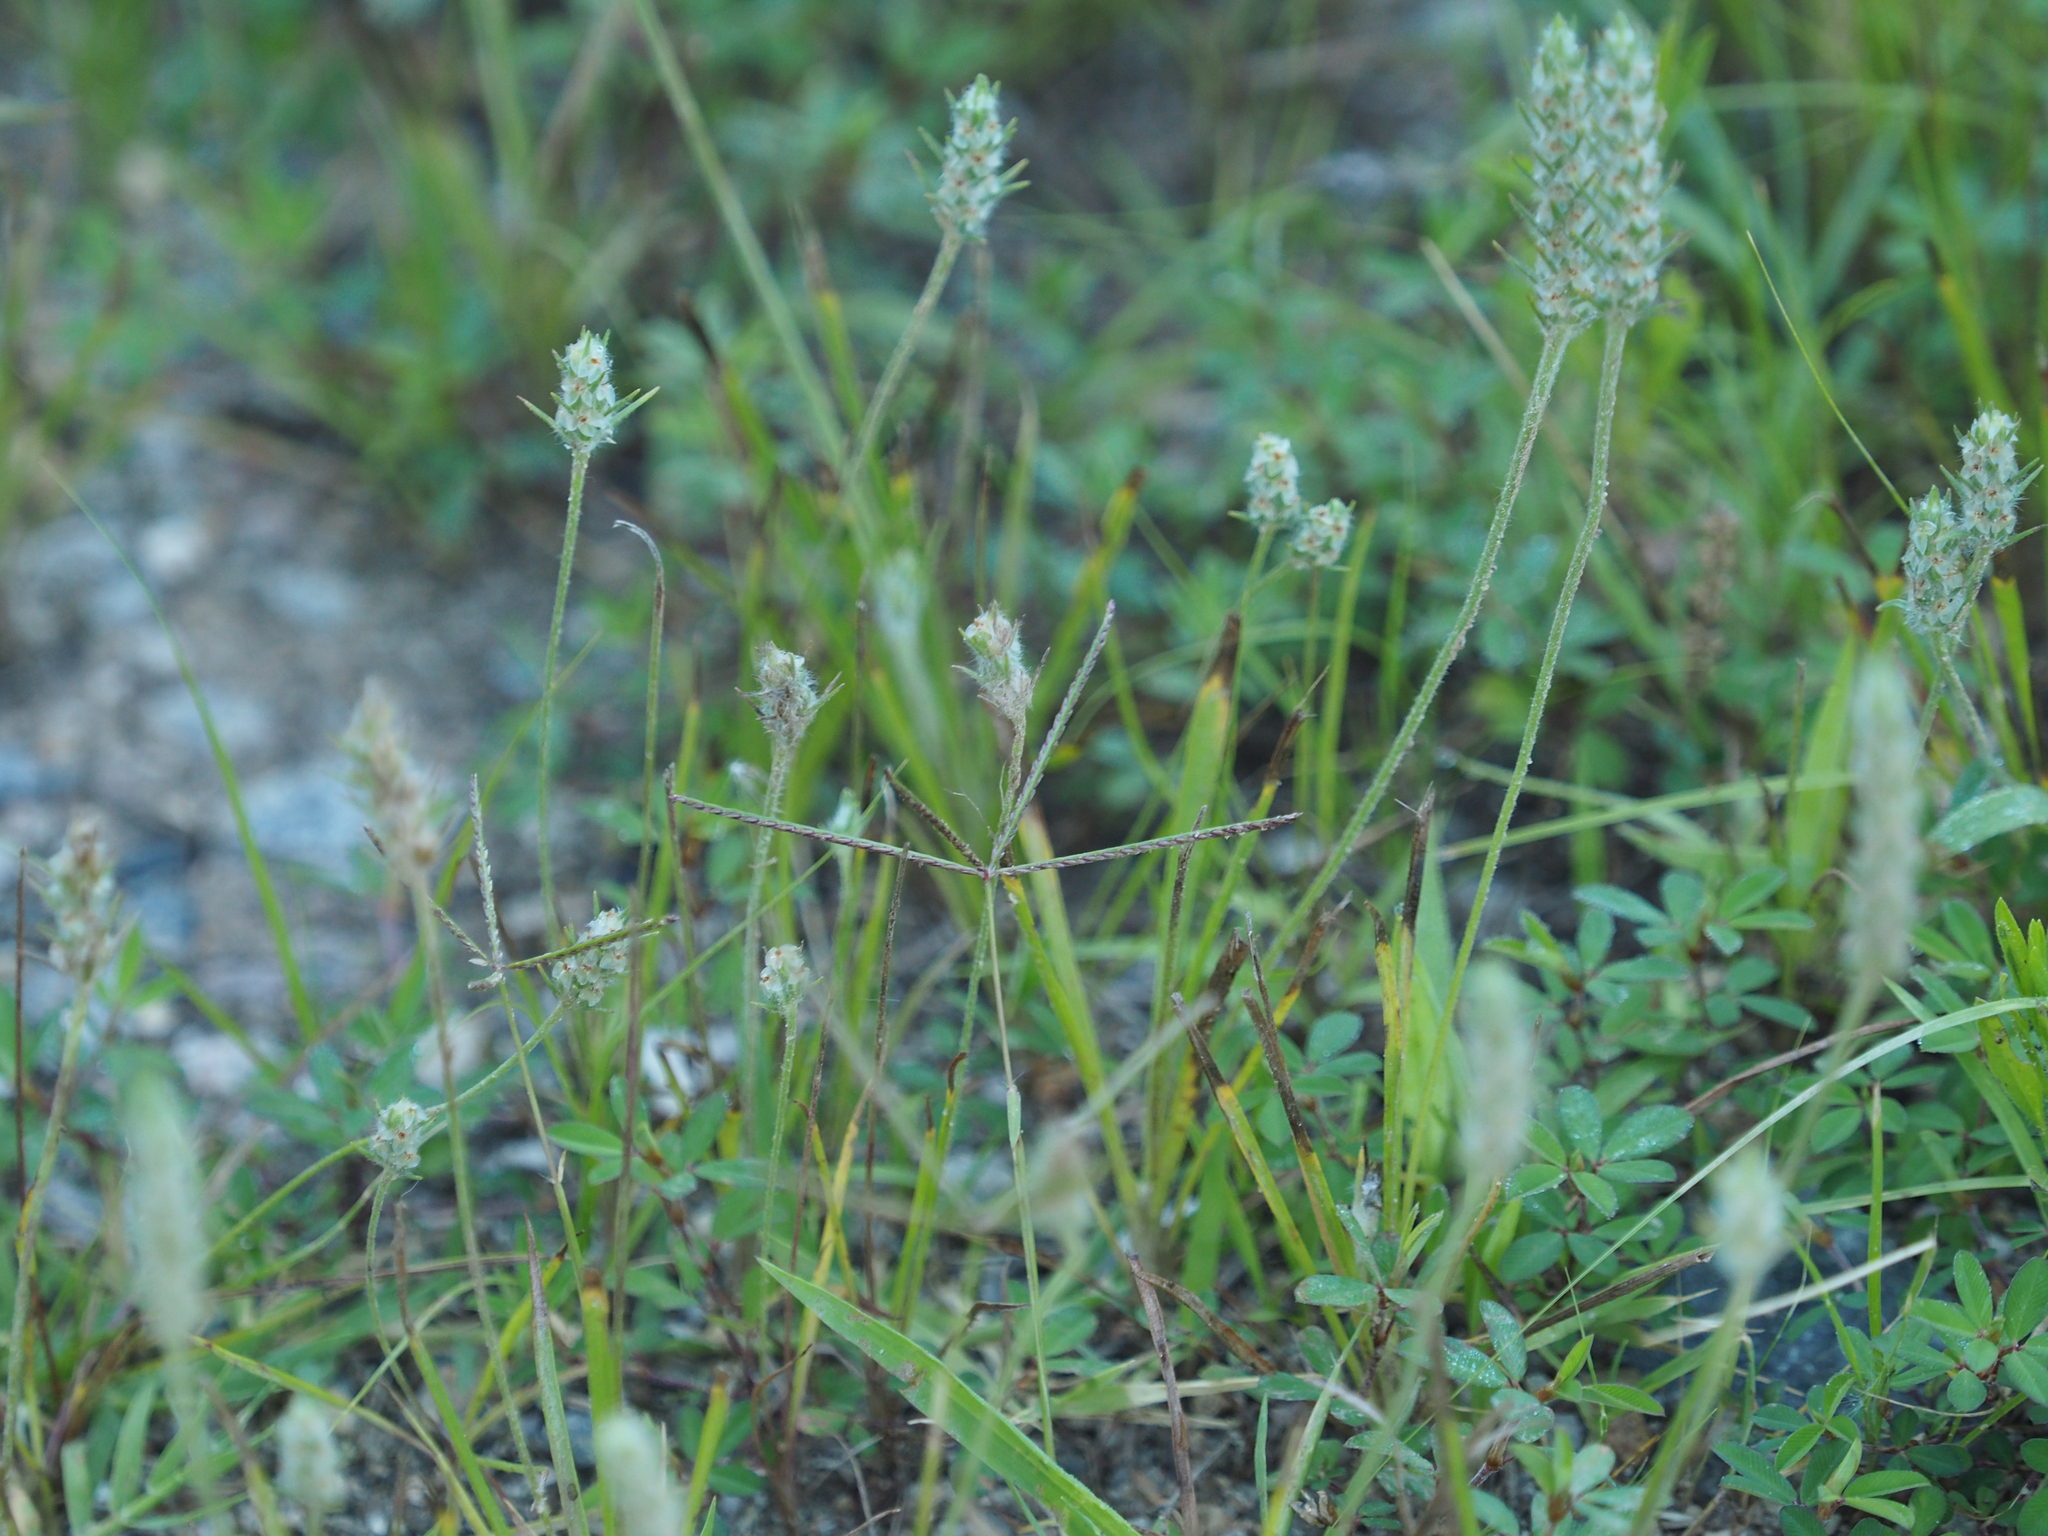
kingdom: Plantae
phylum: Tracheophyta
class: Magnoliopsida
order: Lamiales
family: Plantaginaceae
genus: Plantago
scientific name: Plantago aristata
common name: Bracted plantain
